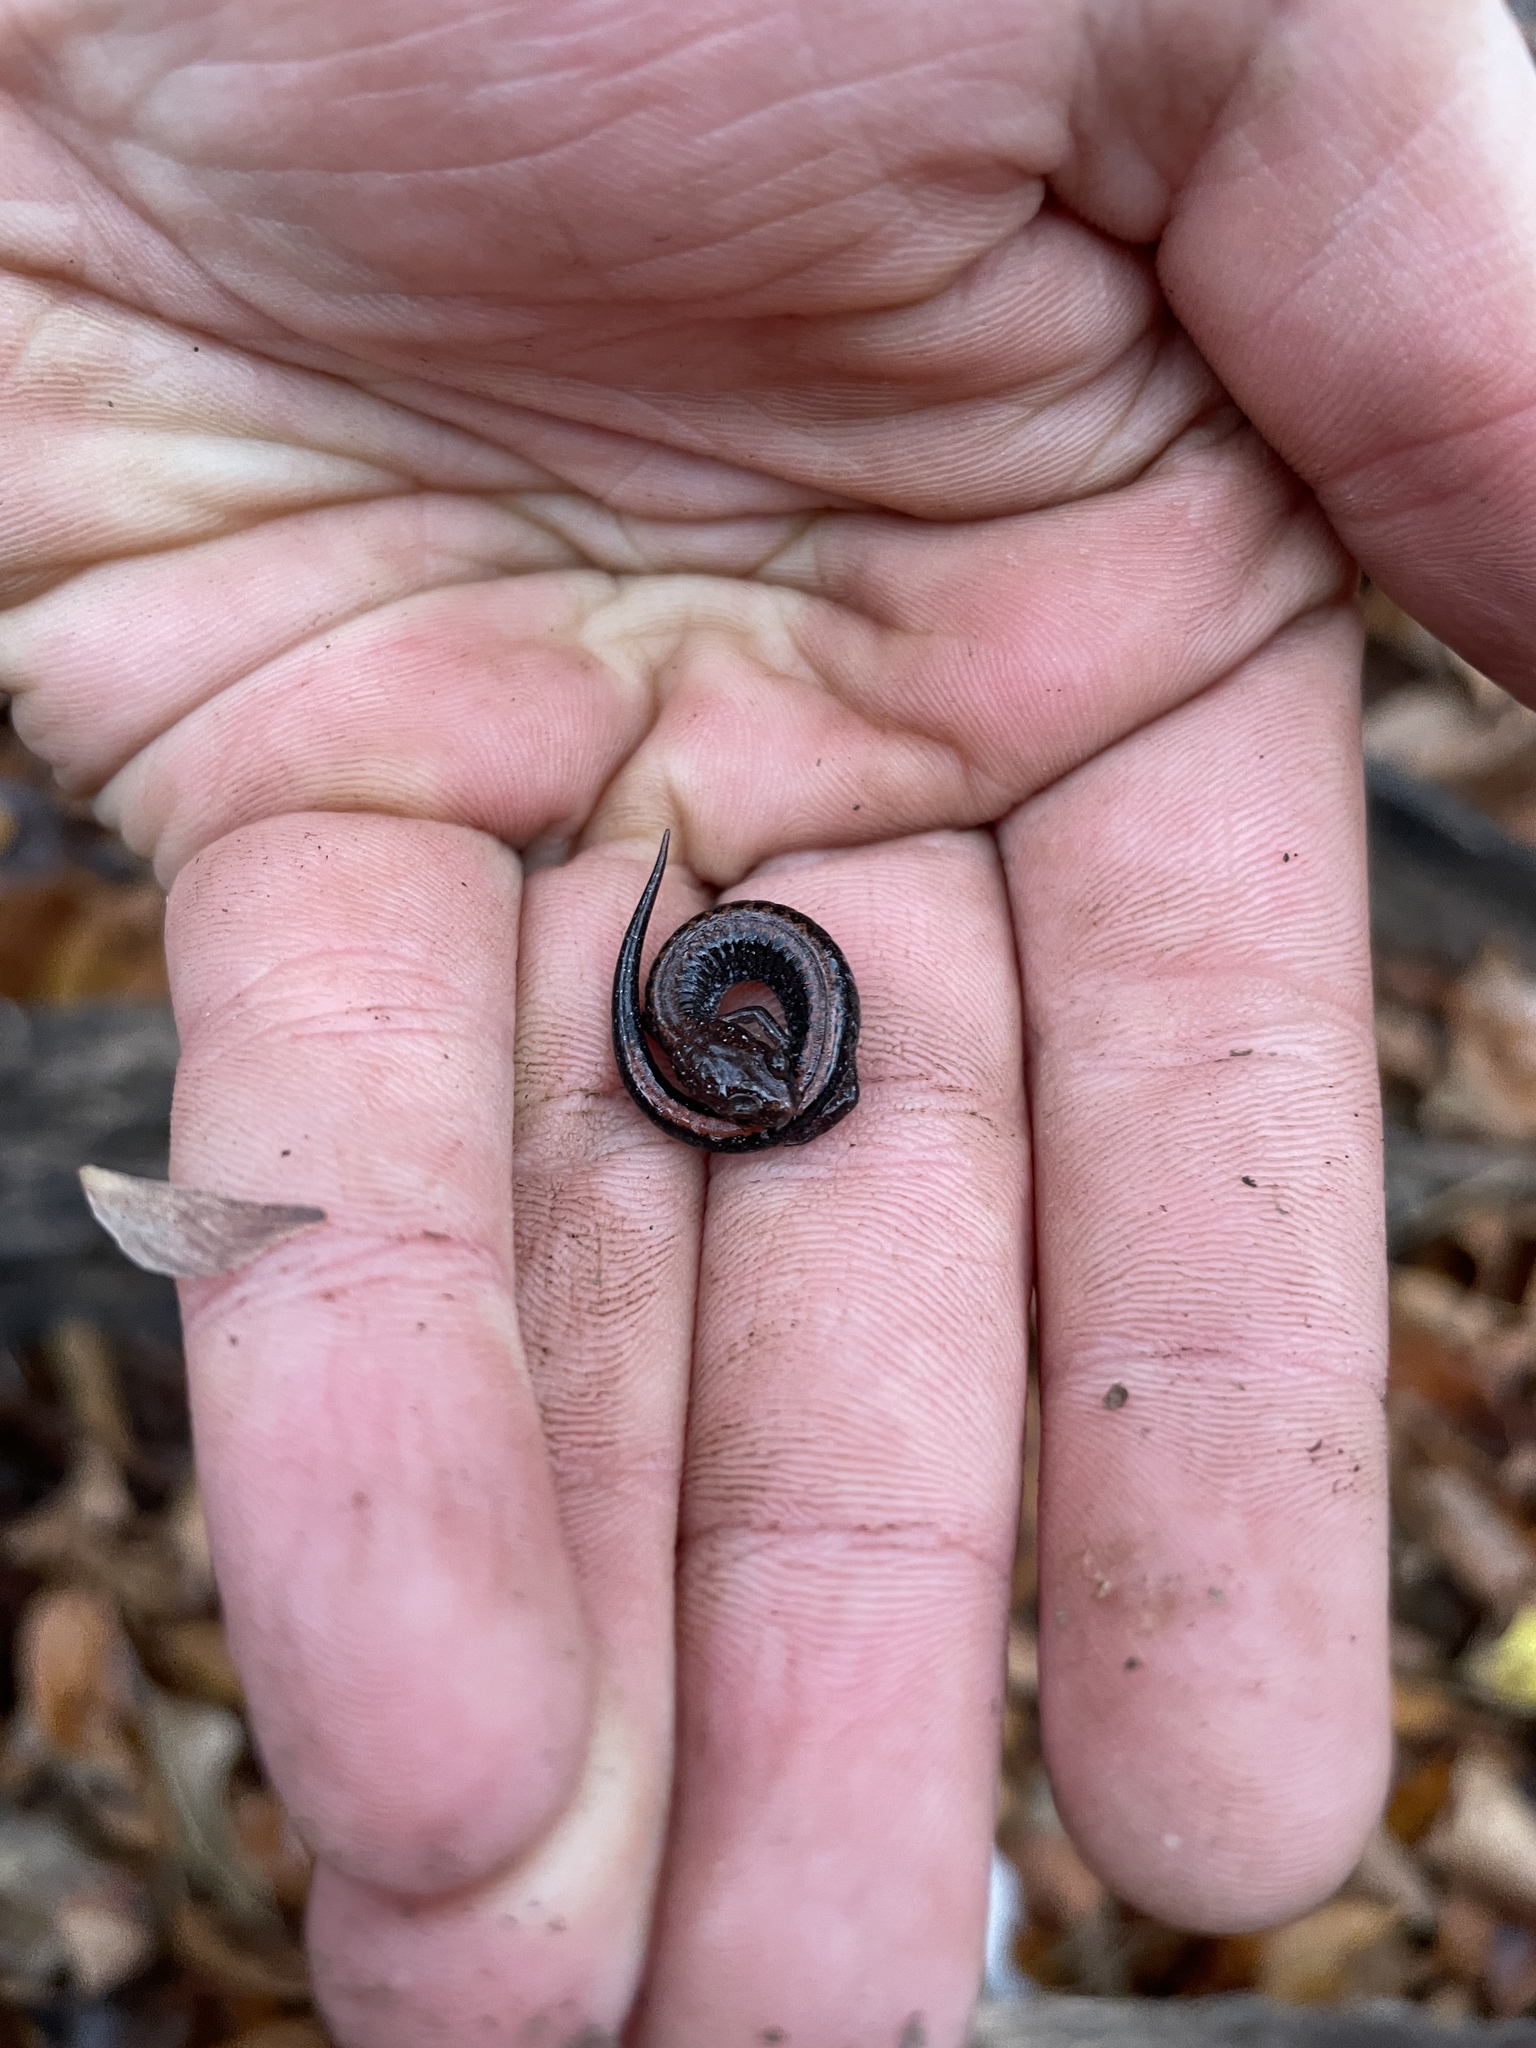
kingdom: Animalia
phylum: Chordata
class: Amphibia
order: Caudata
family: Plethodontidae
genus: Plethodon
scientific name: Plethodon serratus
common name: Southern red-backed salamander
